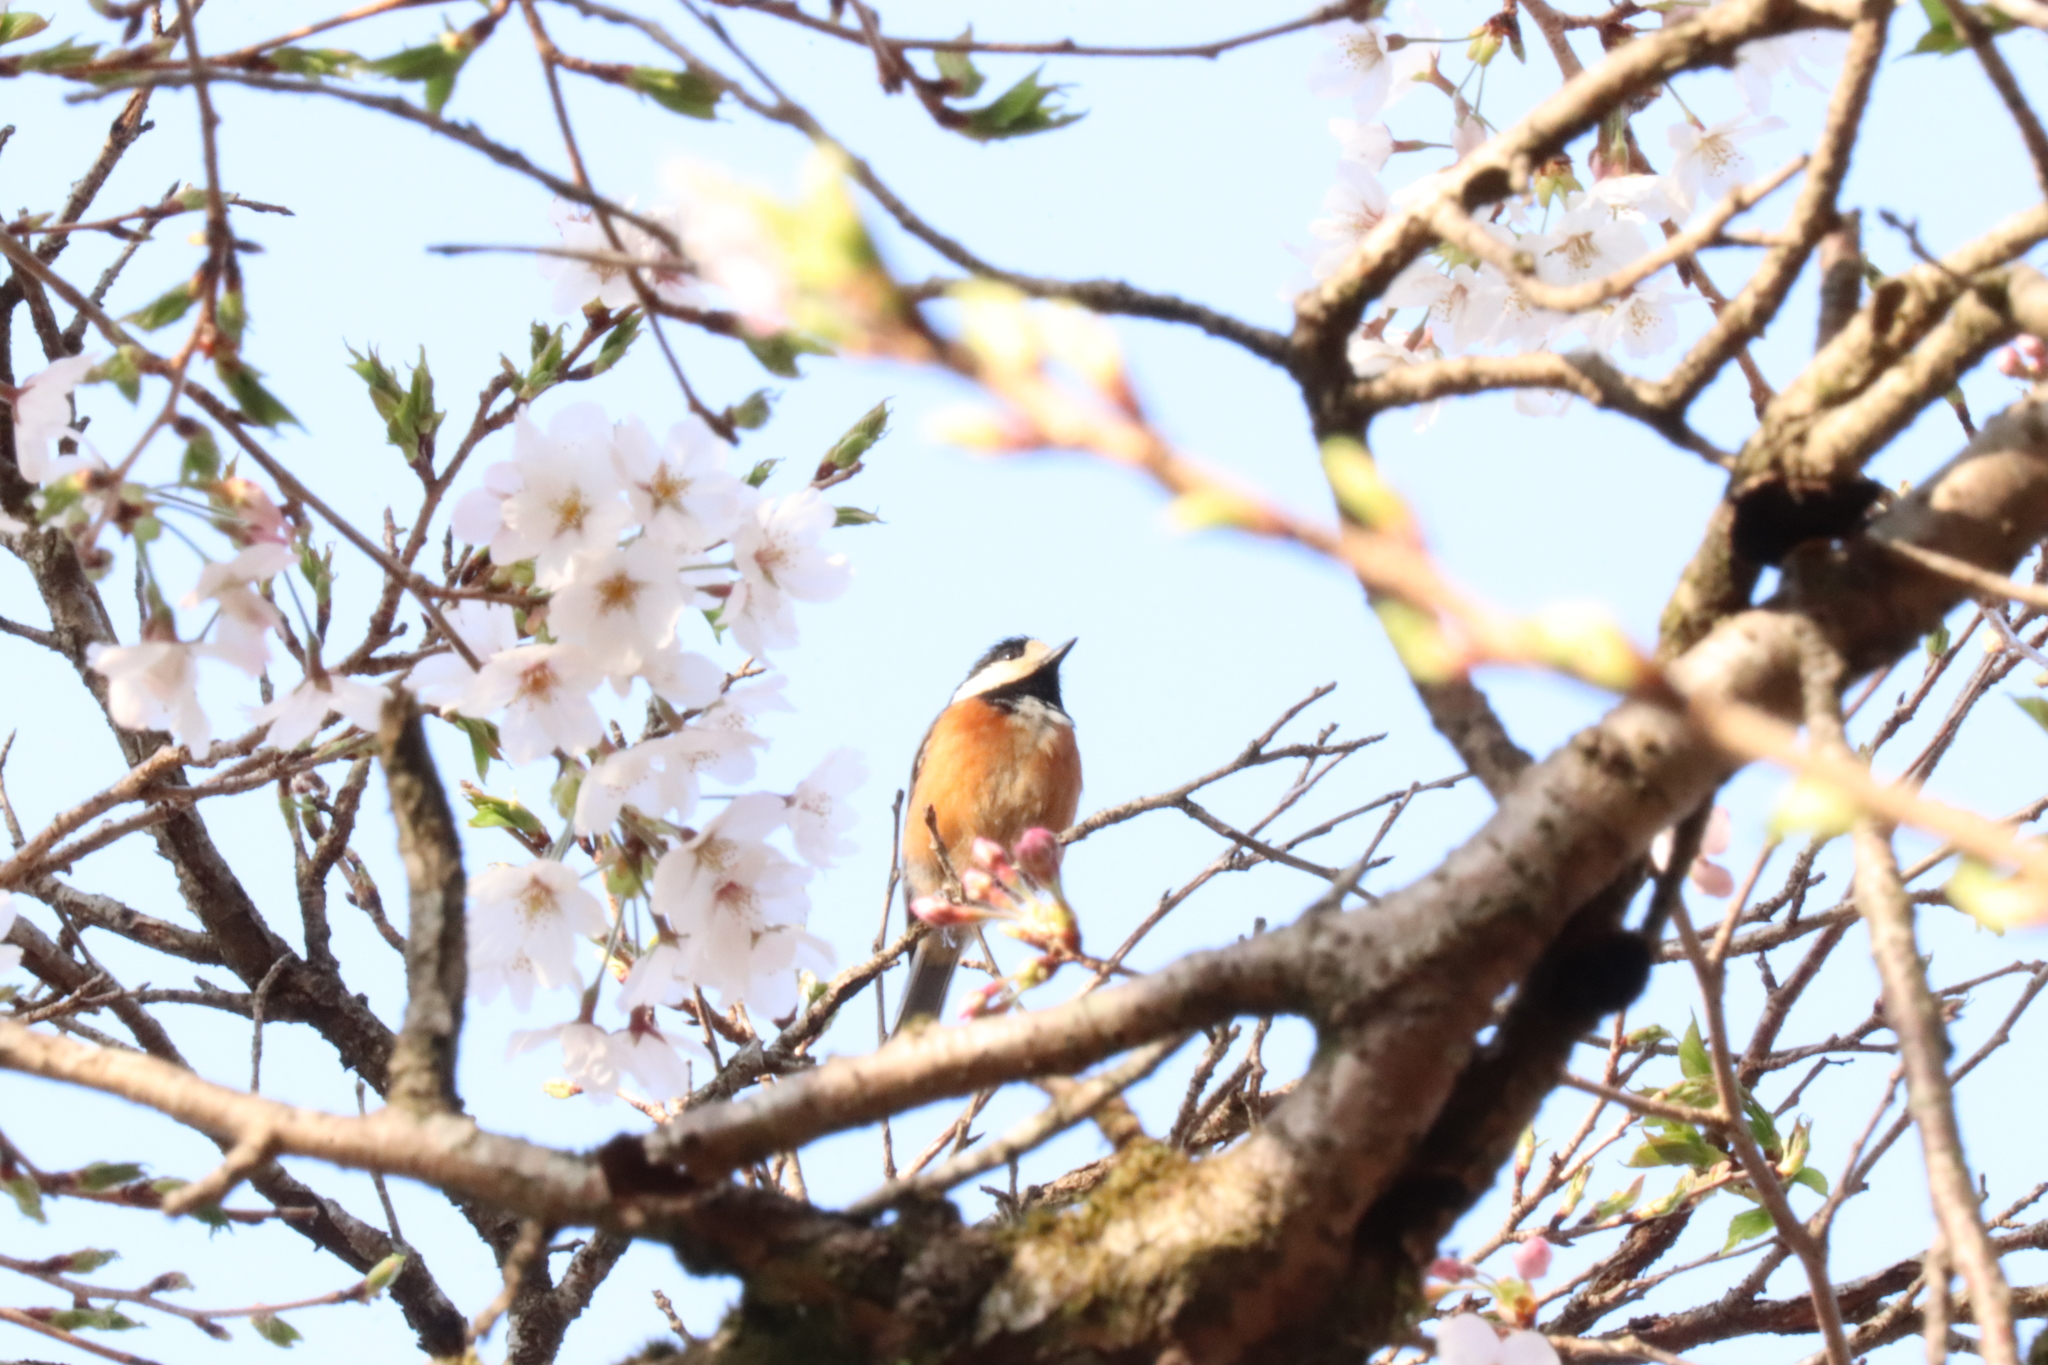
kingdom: Animalia
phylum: Chordata
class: Aves
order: Passeriformes
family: Paridae
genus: Poecile
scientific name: Poecile varius
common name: Varied tit
